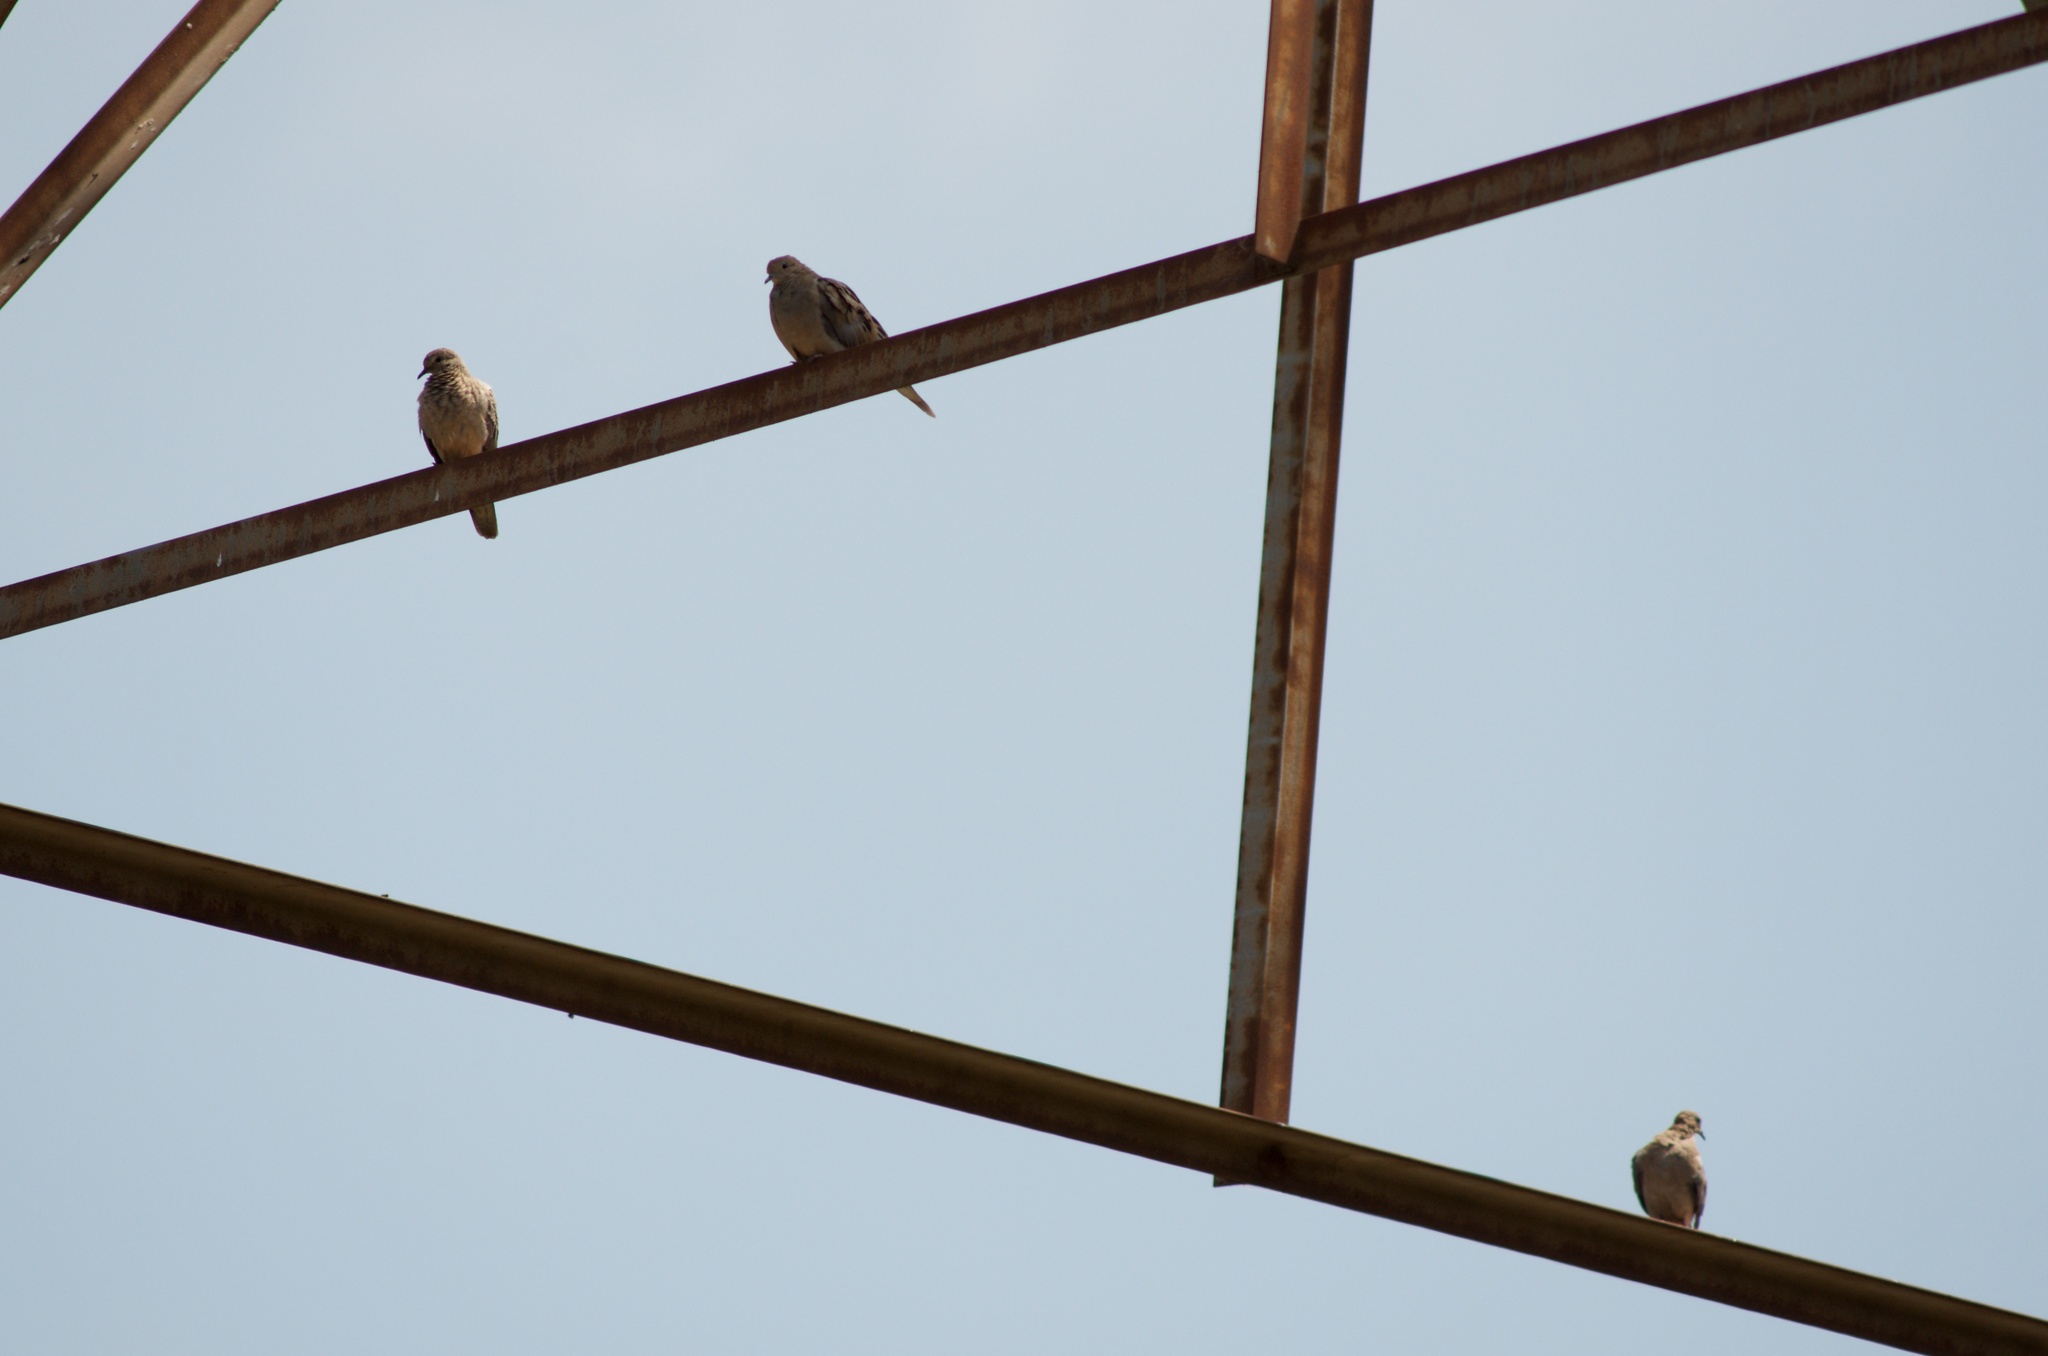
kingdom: Animalia
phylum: Chordata
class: Aves
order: Columbiformes
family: Columbidae
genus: Zenaida
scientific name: Zenaida macroura
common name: Mourning dove
